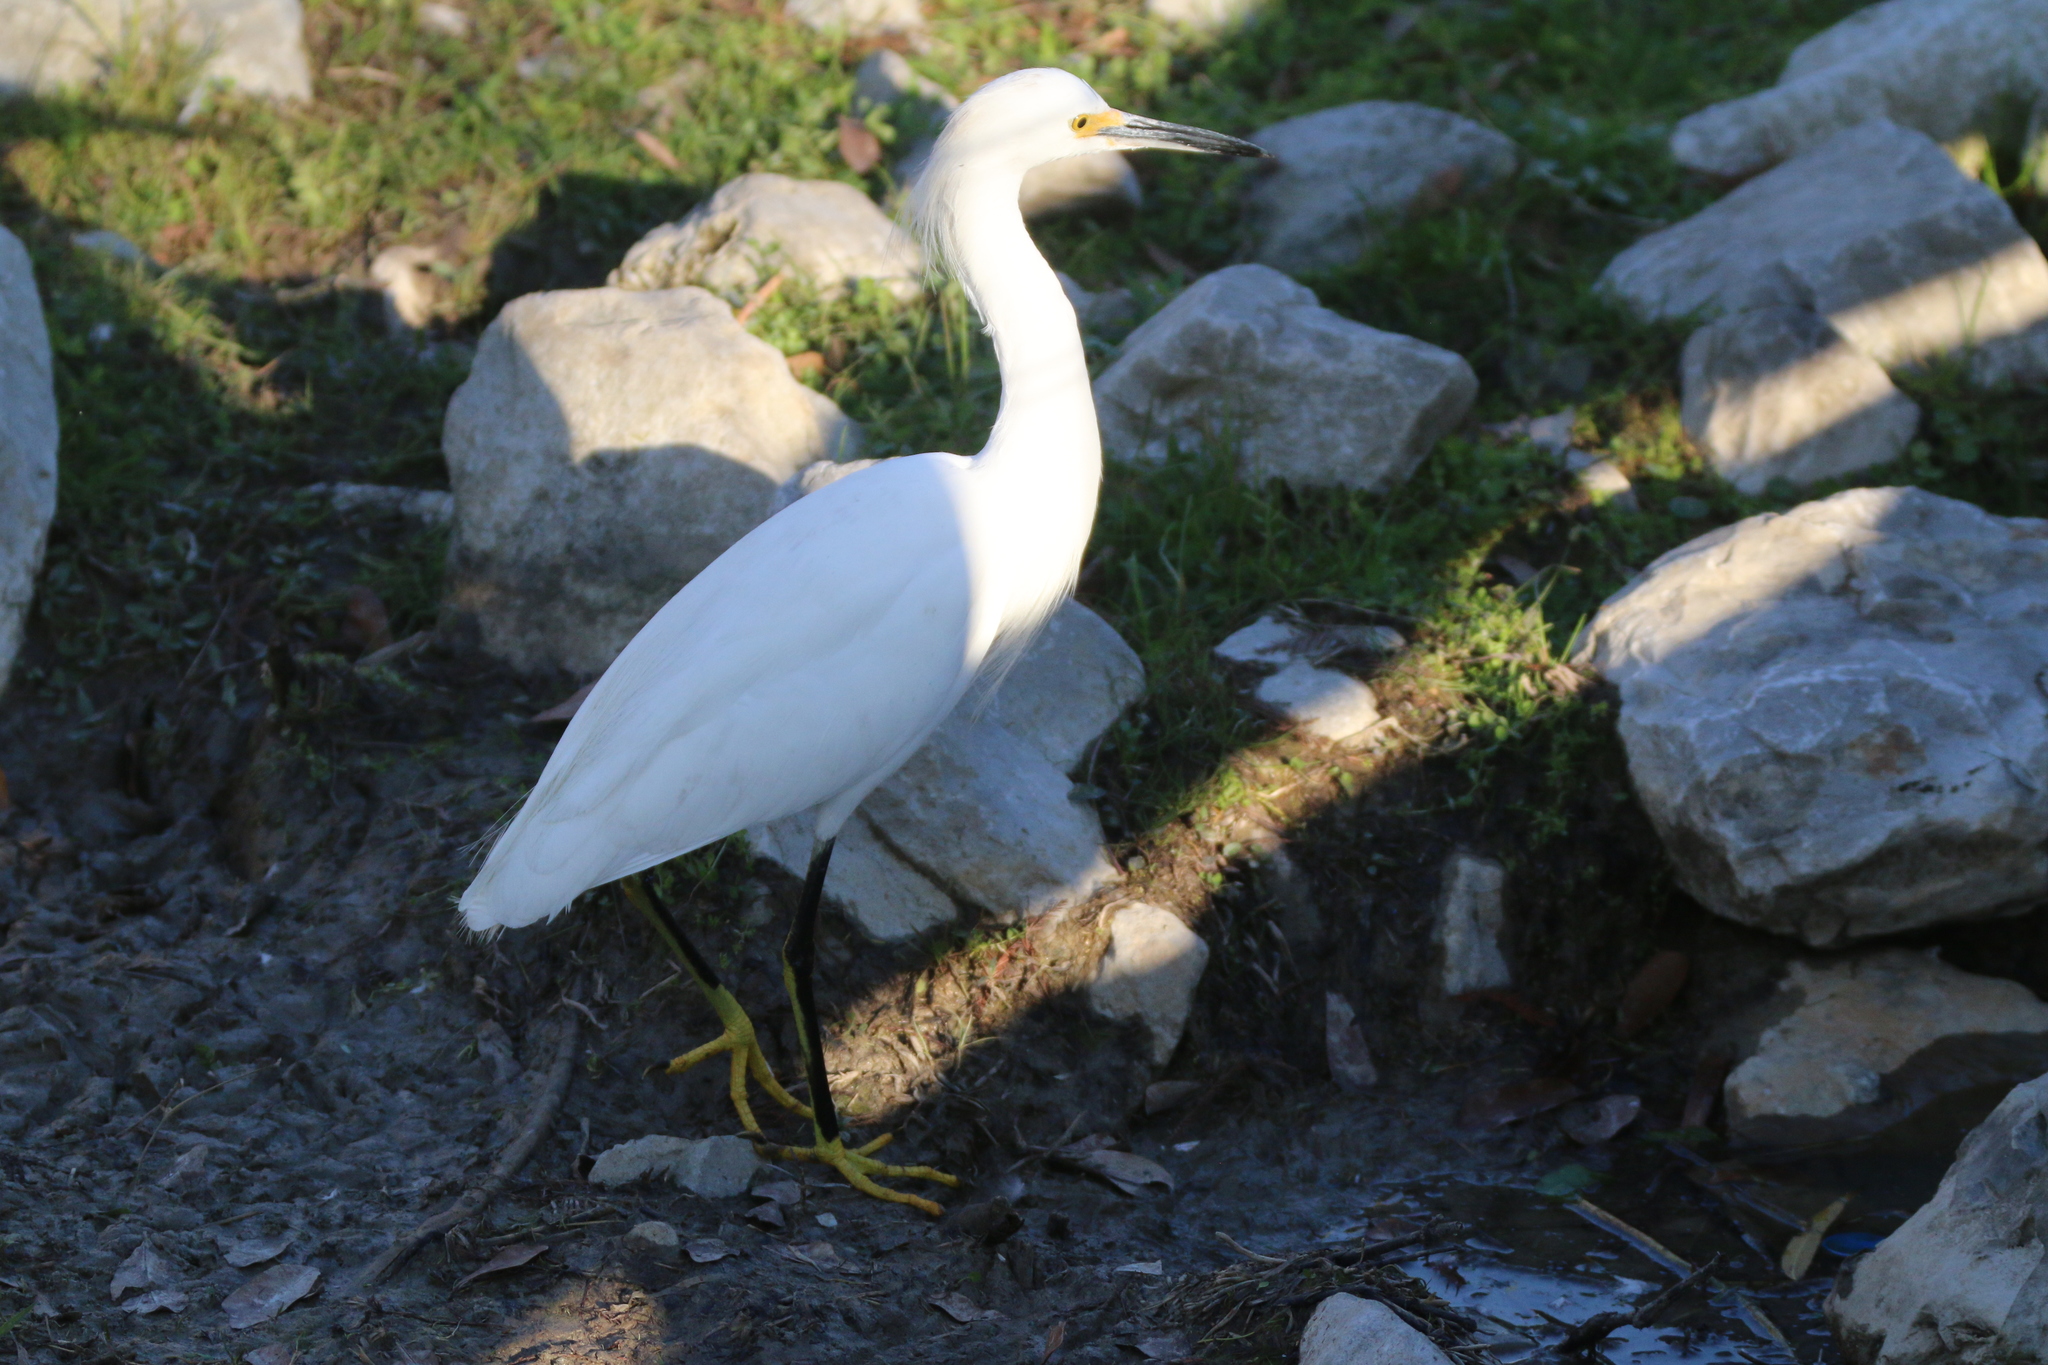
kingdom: Animalia
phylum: Chordata
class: Aves
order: Pelecaniformes
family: Ardeidae
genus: Egretta
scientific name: Egretta thula
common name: Snowy egret
